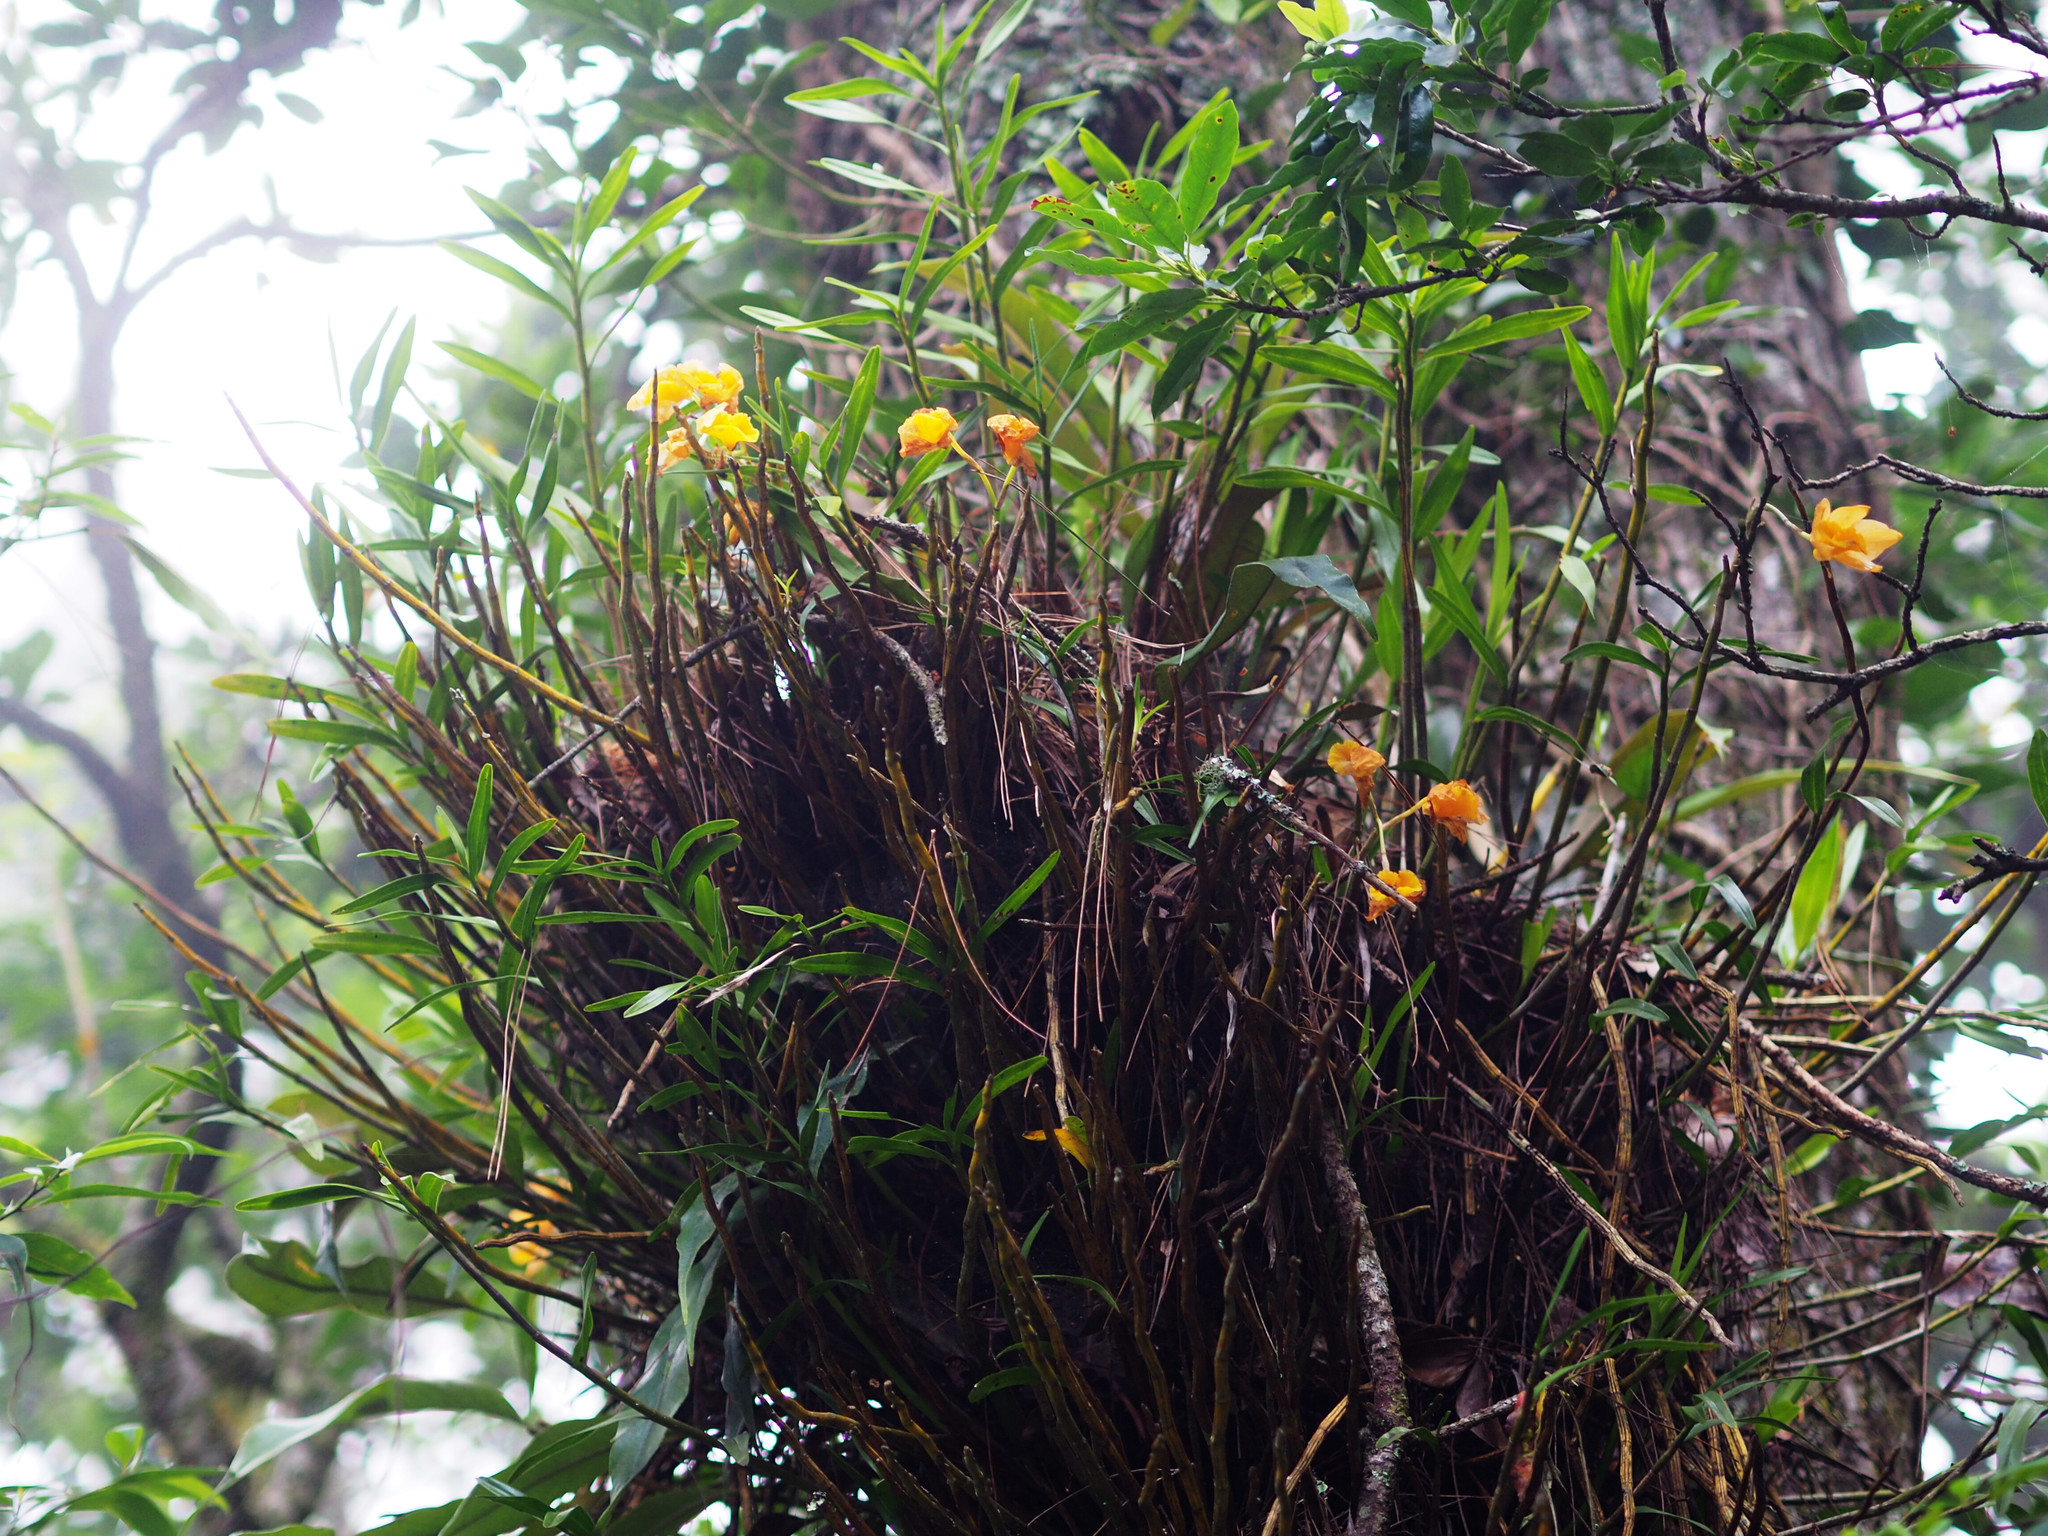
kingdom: Plantae
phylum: Tracheophyta
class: Liliopsida
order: Asparagales
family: Orchidaceae
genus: Dendrobium
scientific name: Dendrobium chryseum
